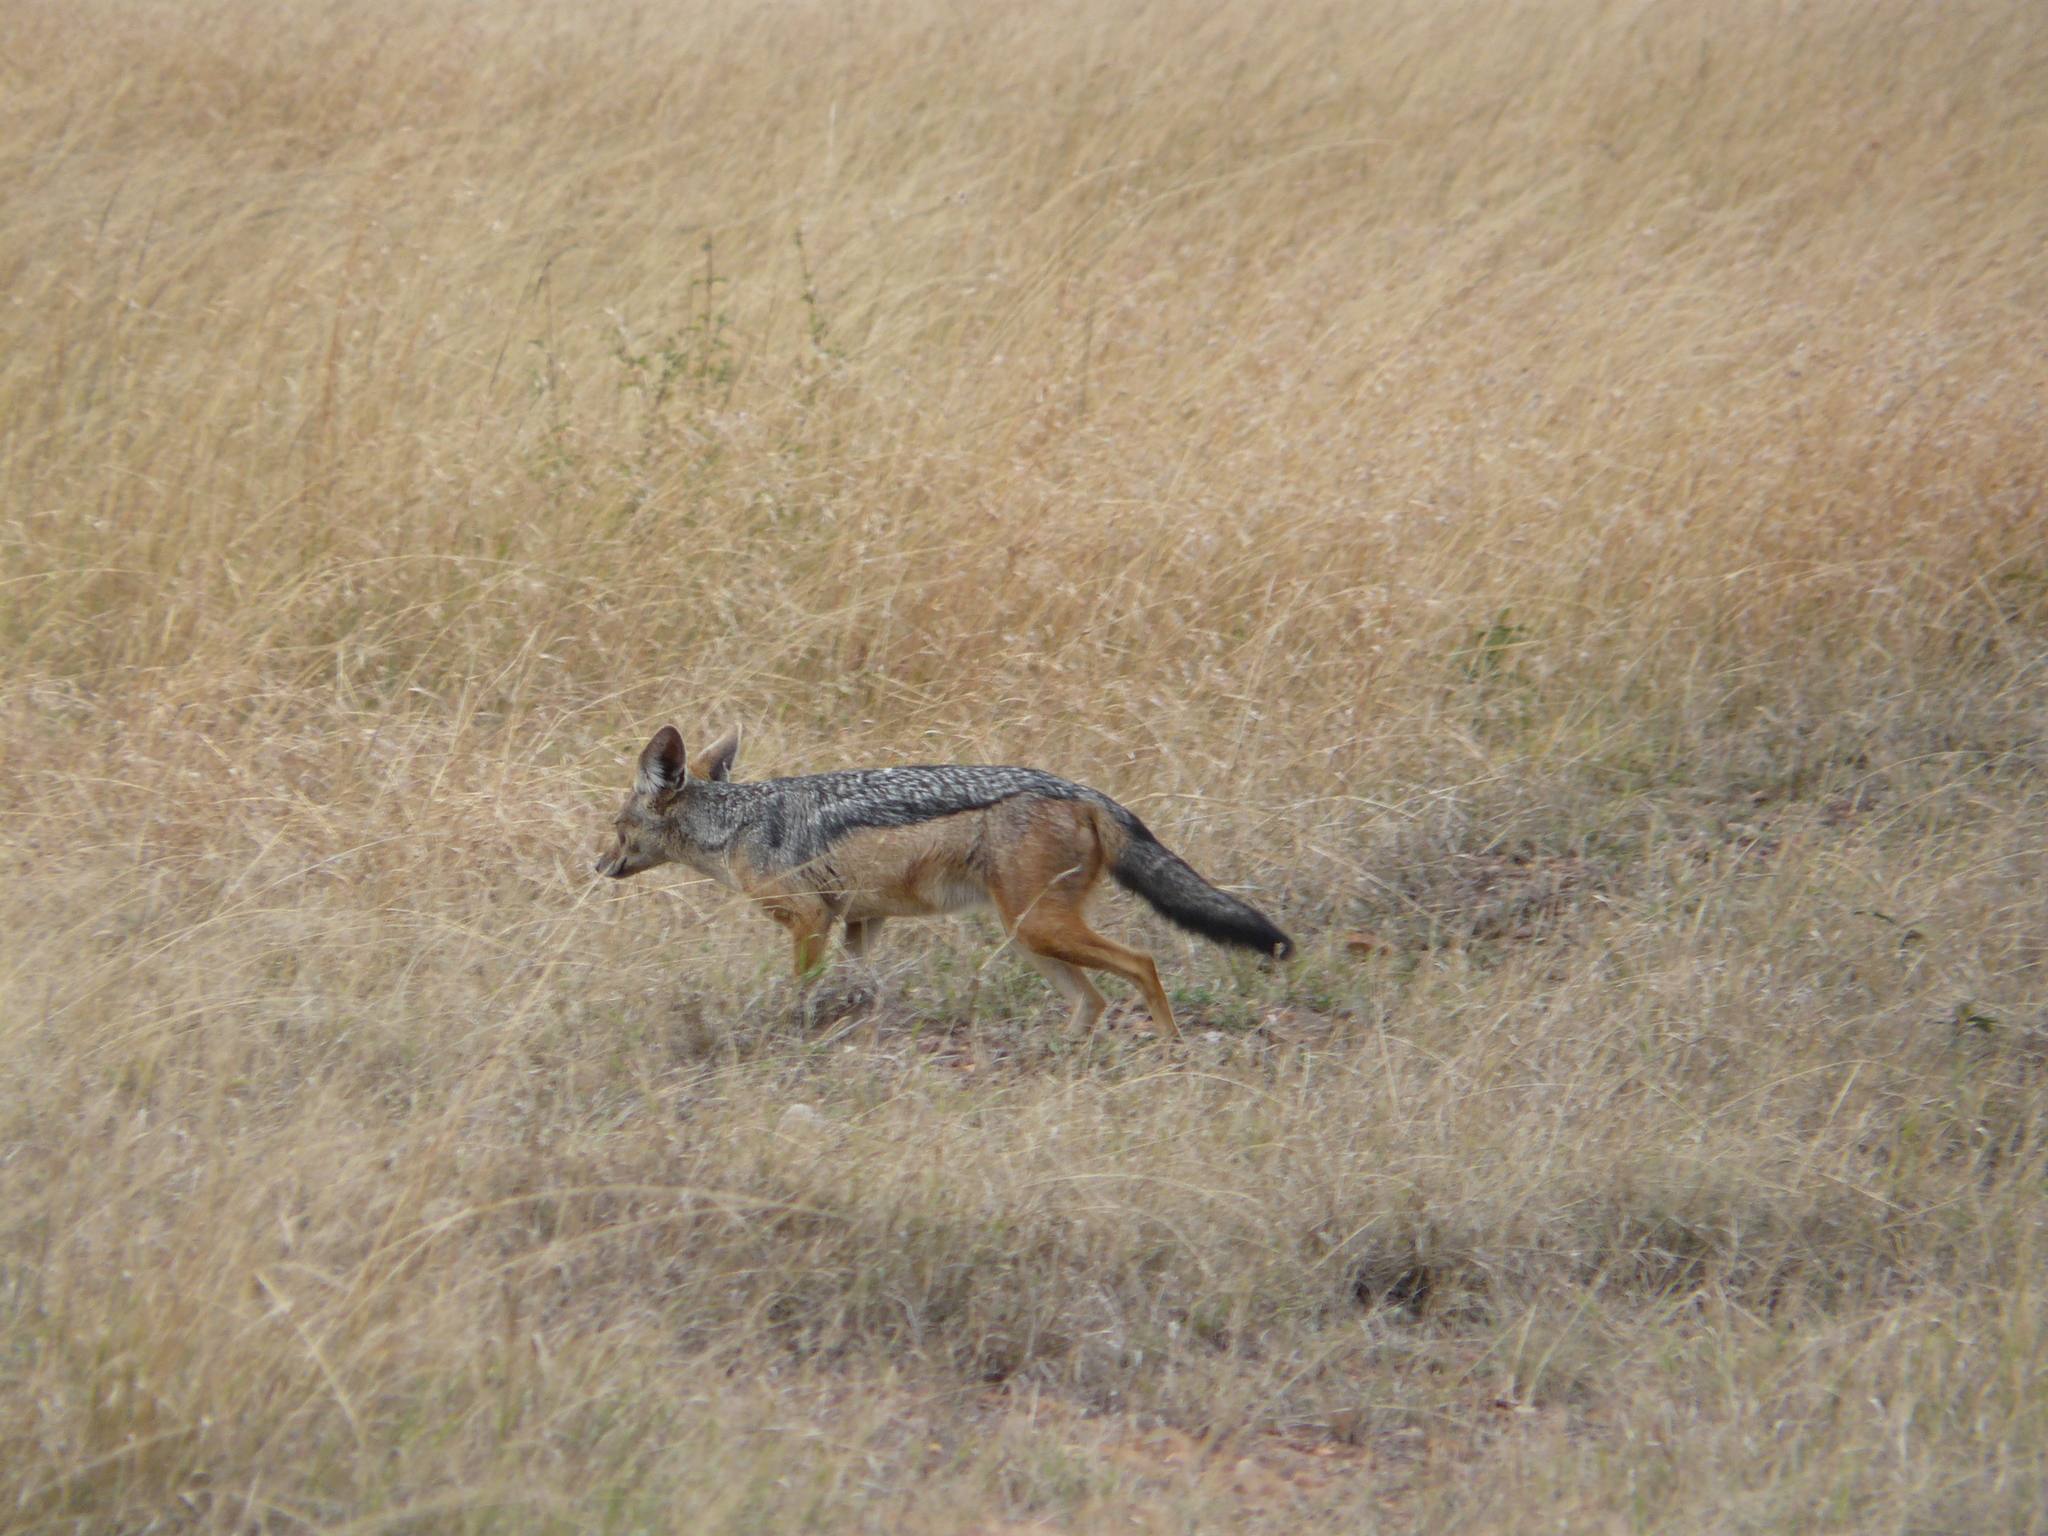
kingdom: Animalia
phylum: Chordata
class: Mammalia
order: Carnivora
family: Canidae
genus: Lupulella
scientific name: Lupulella
